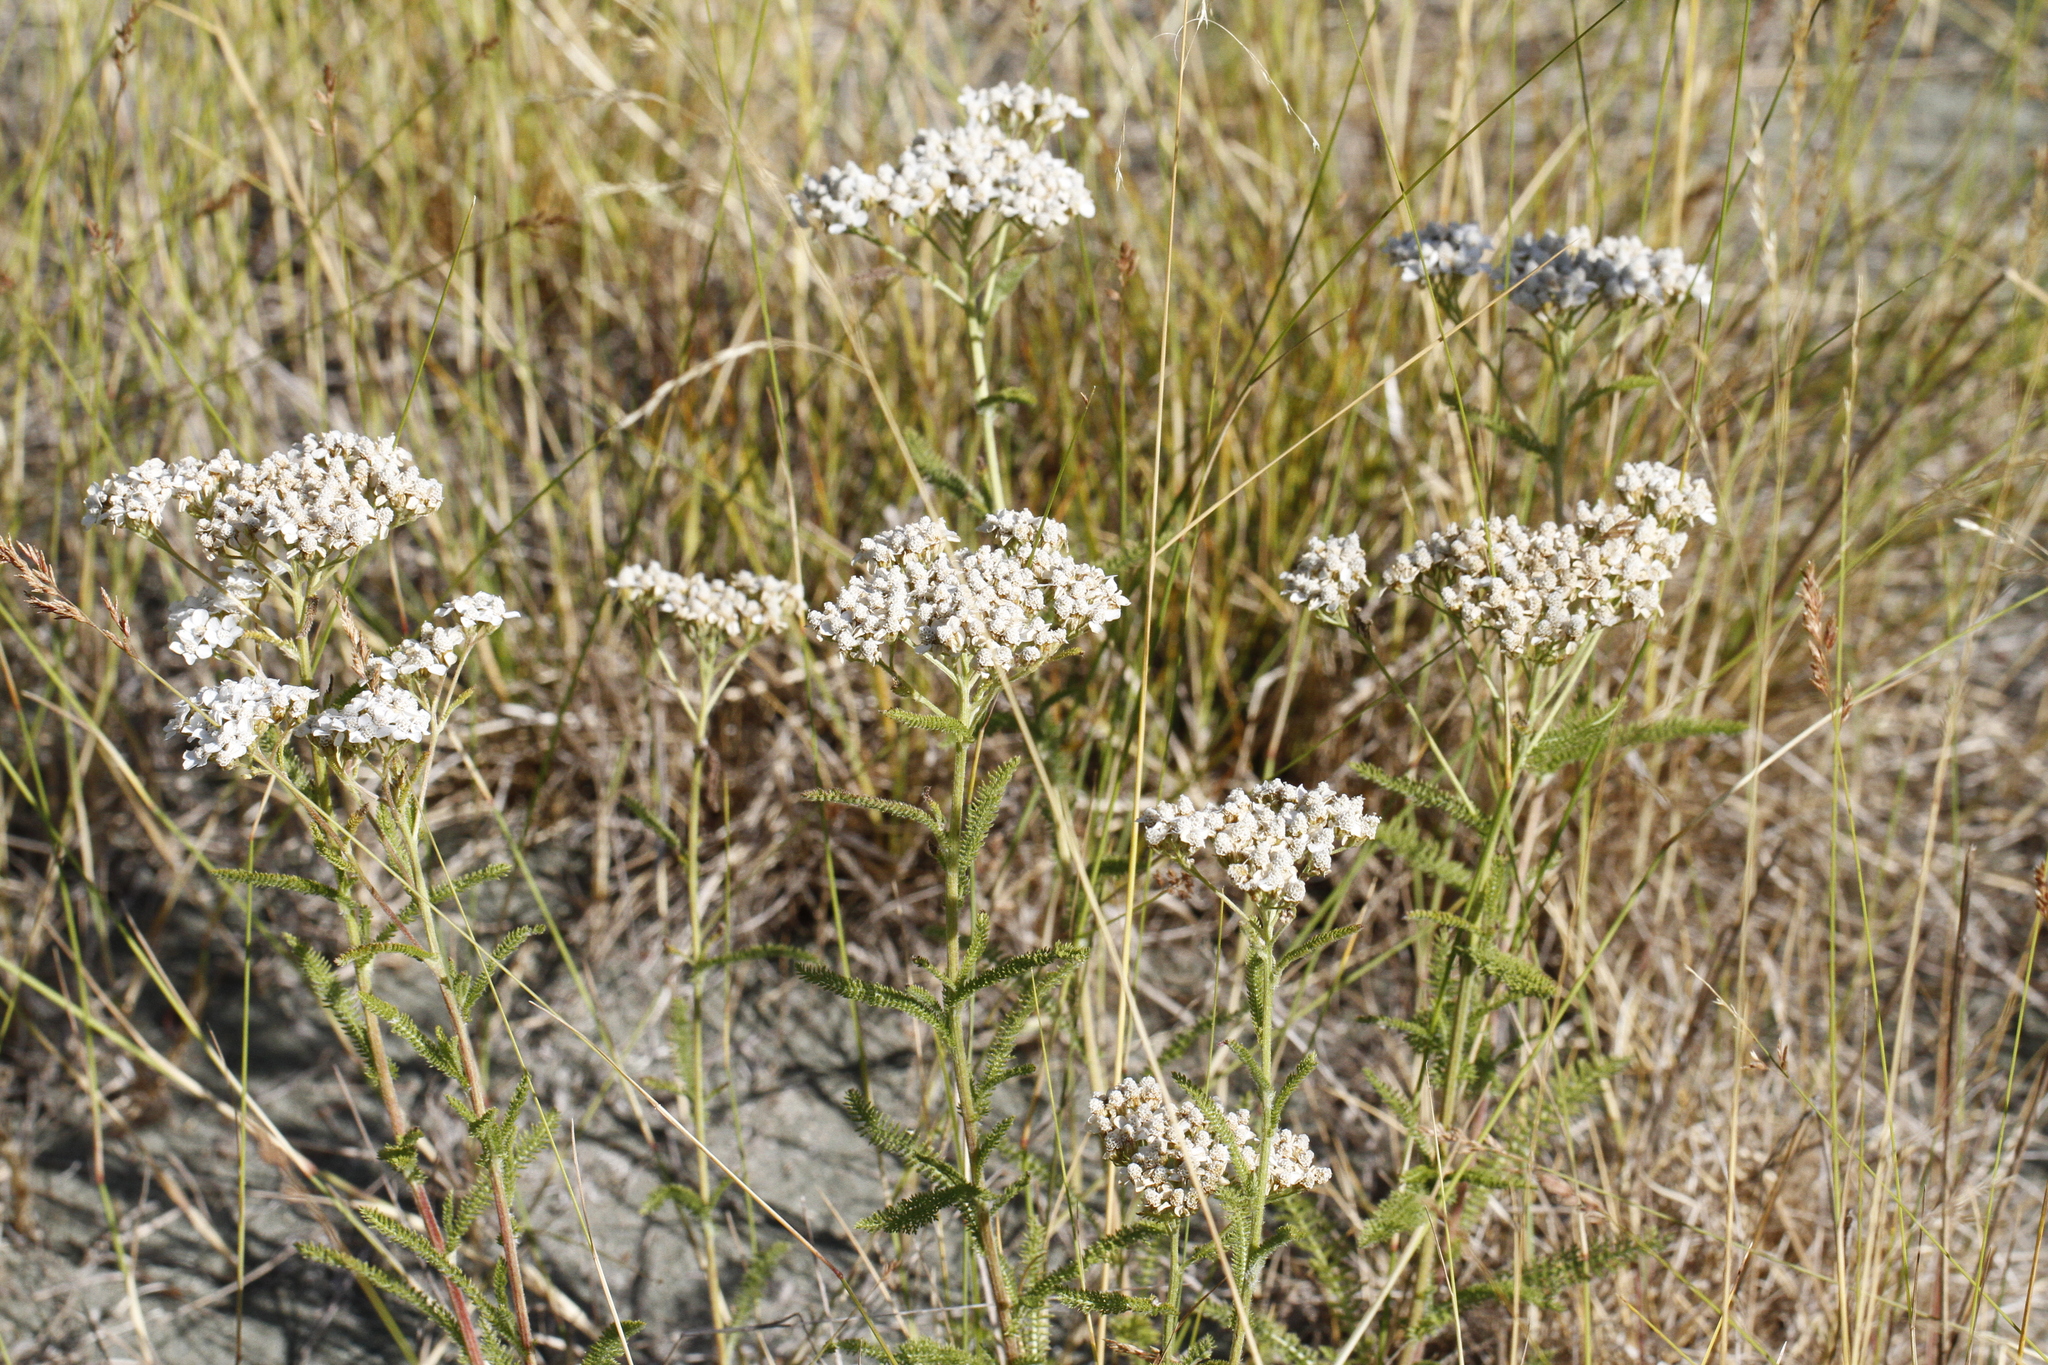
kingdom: Plantae
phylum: Tracheophyta
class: Magnoliopsida
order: Asterales
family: Asteraceae
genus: Achillea
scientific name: Achillea millefolium
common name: Yarrow
